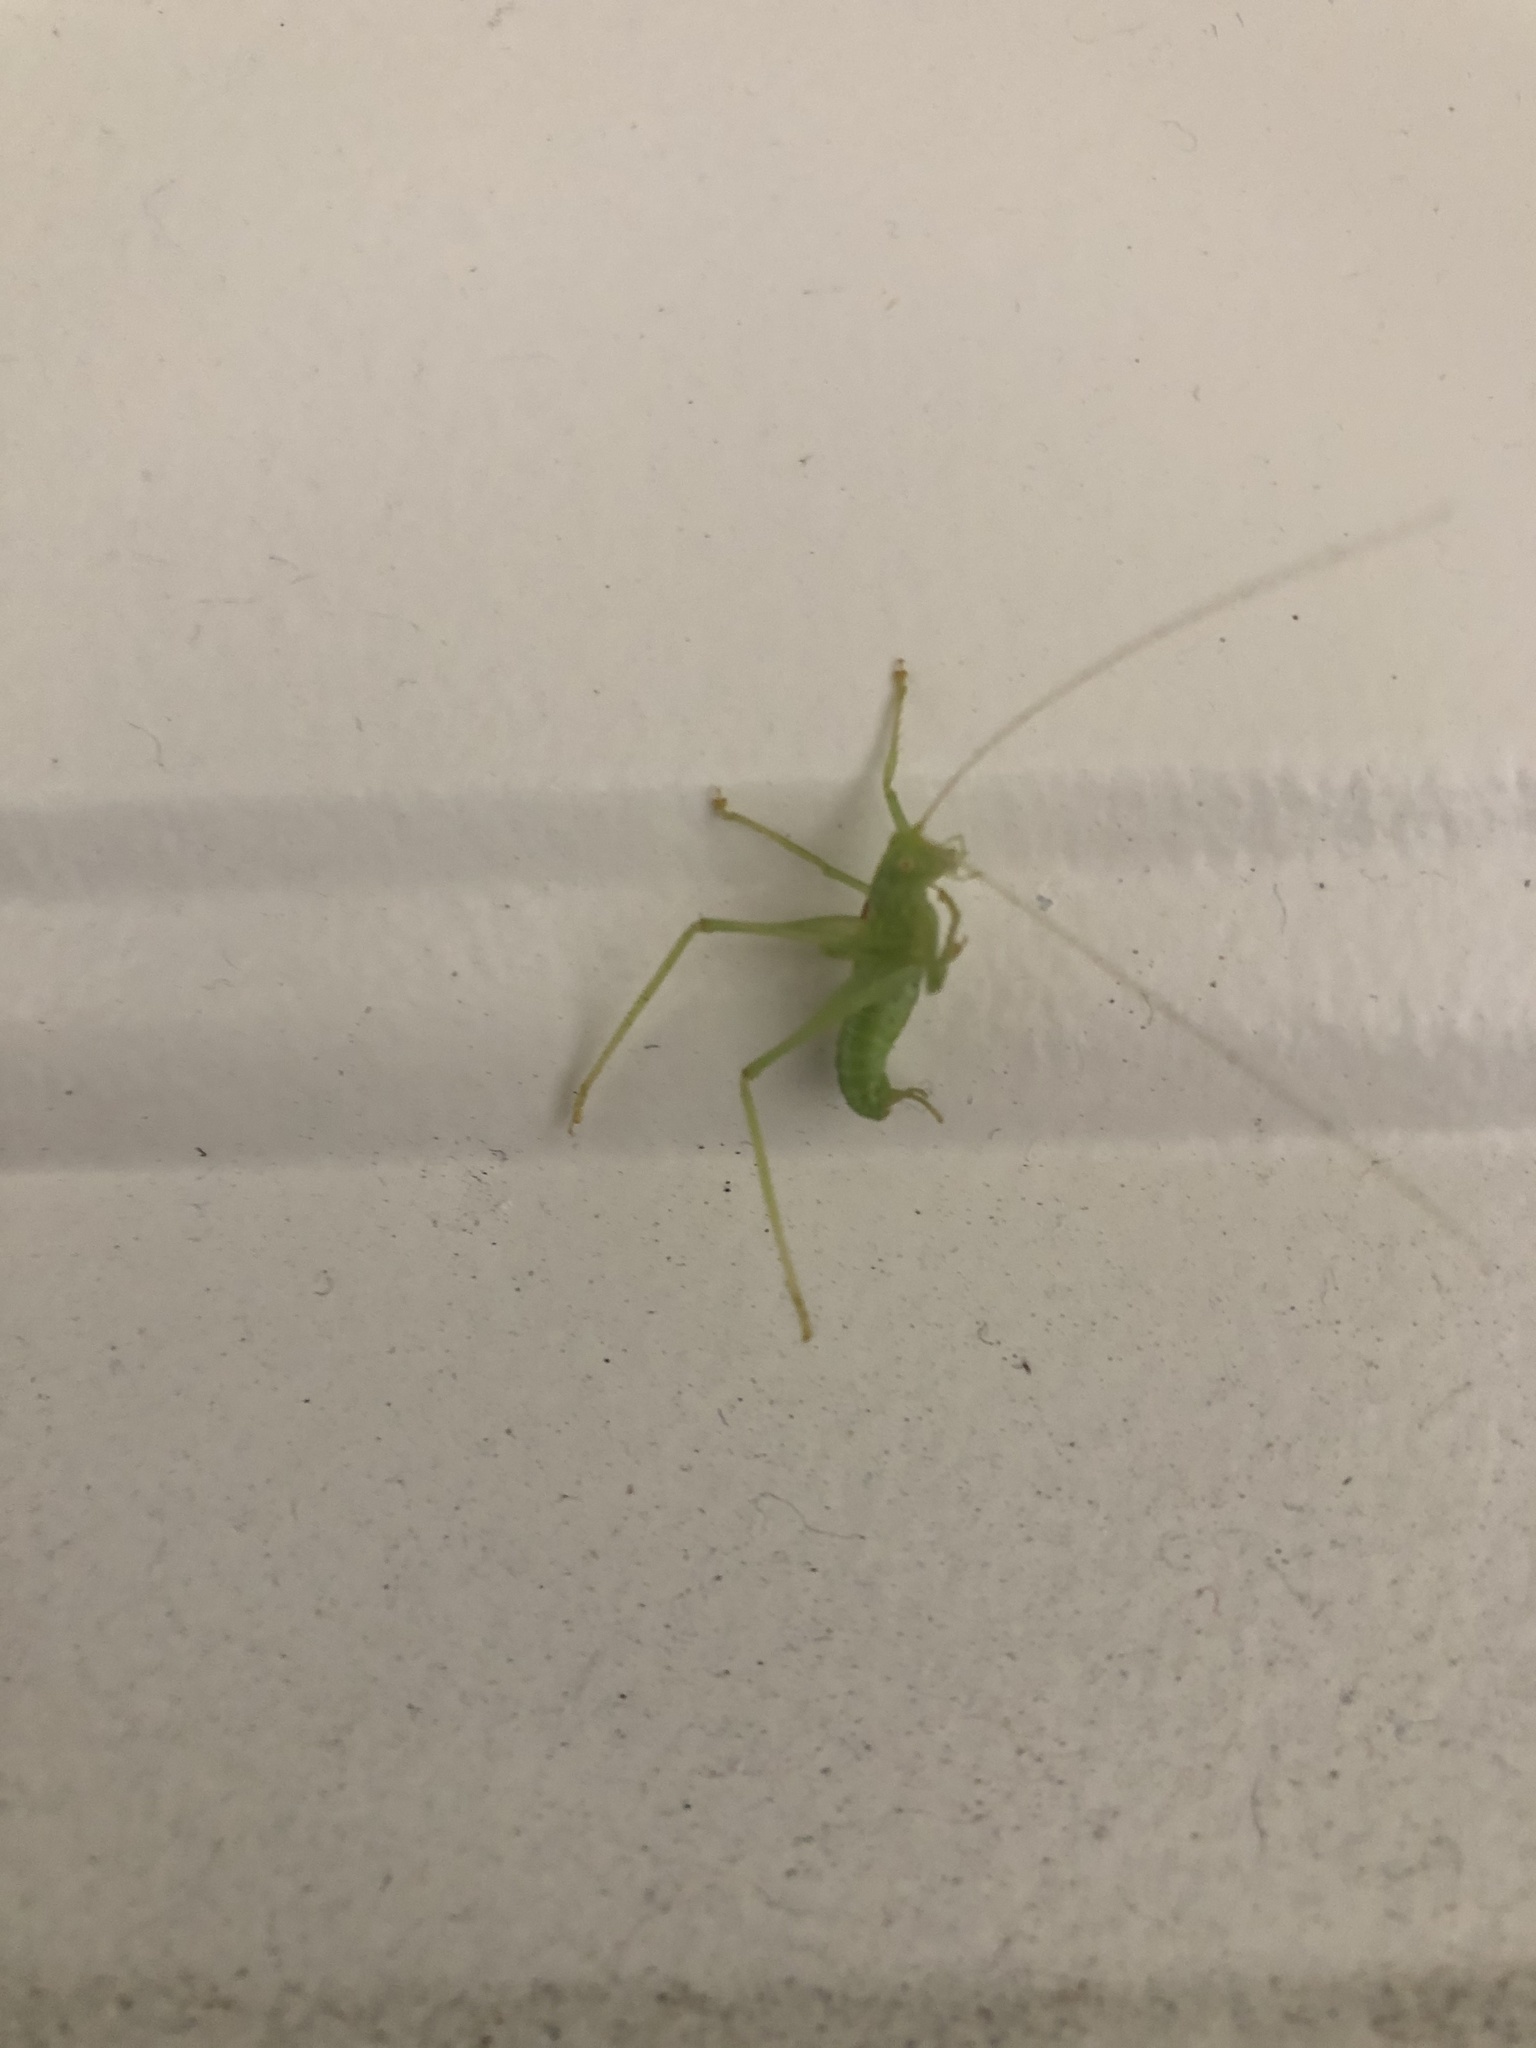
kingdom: Animalia
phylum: Arthropoda
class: Insecta
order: Orthoptera
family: Tettigoniidae
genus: Meconema
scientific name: Meconema meridionale
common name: Southern oak bush-cricket
